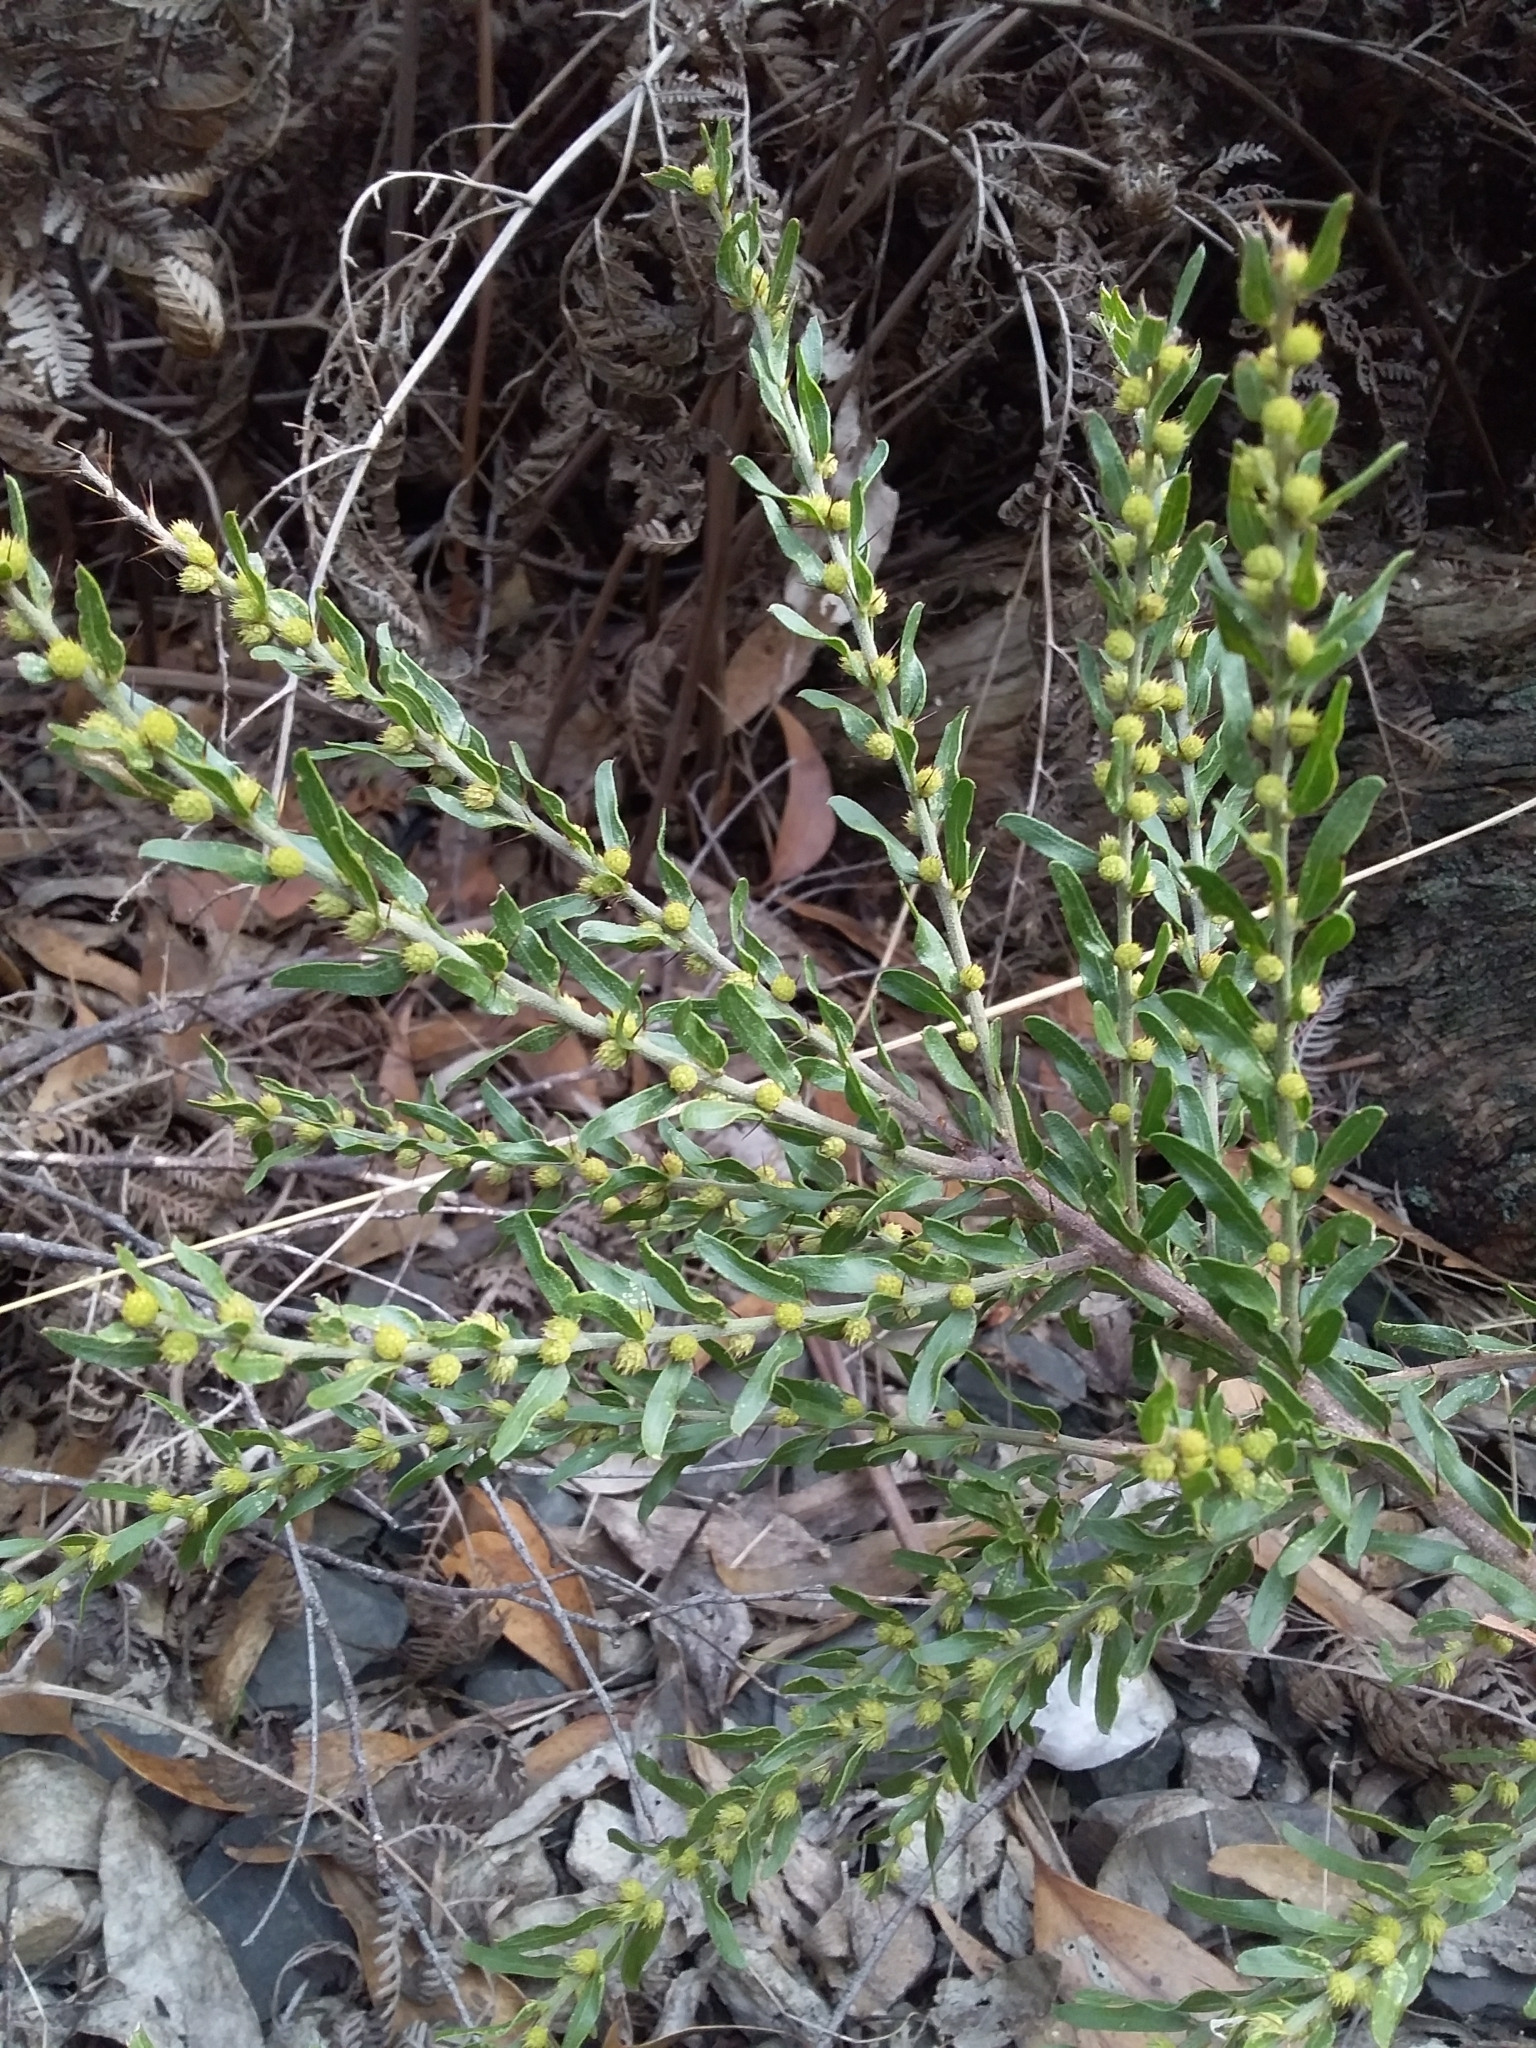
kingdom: Plantae
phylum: Tracheophyta
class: Magnoliopsida
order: Fabales
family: Fabaceae
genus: Acacia
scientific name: Acacia paradoxa
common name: Paradox acacia
